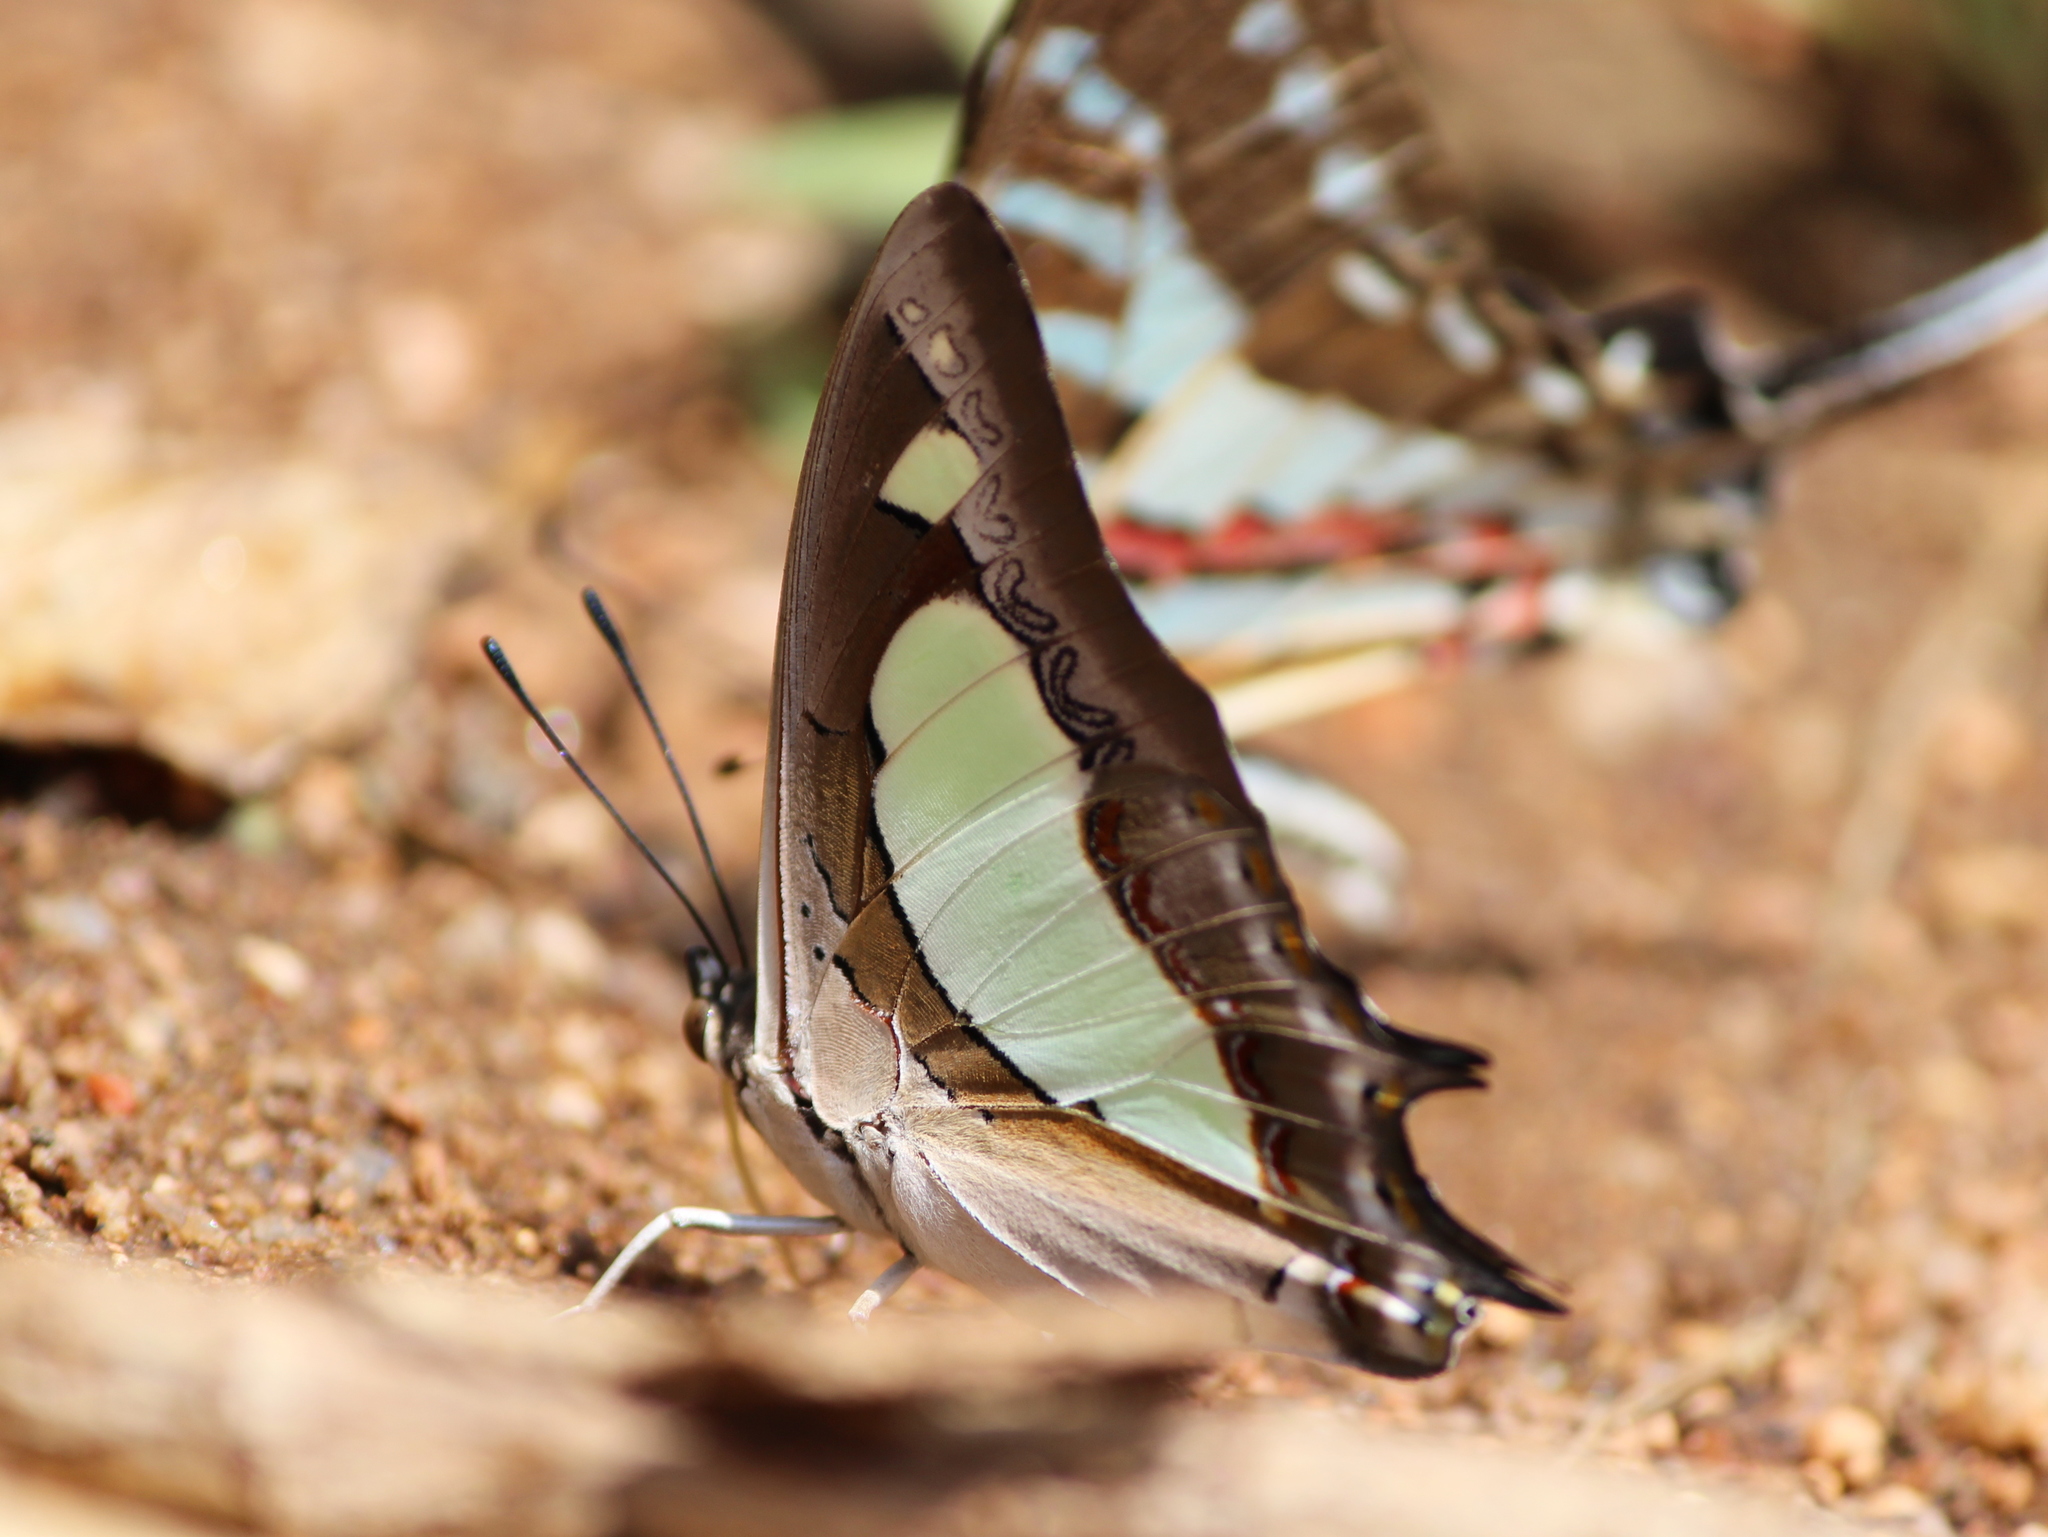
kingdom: Animalia
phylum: Arthropoda
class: Insecta
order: Lepidoptera
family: Nymphalidae
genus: Polyura
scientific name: Polyura agrarius
